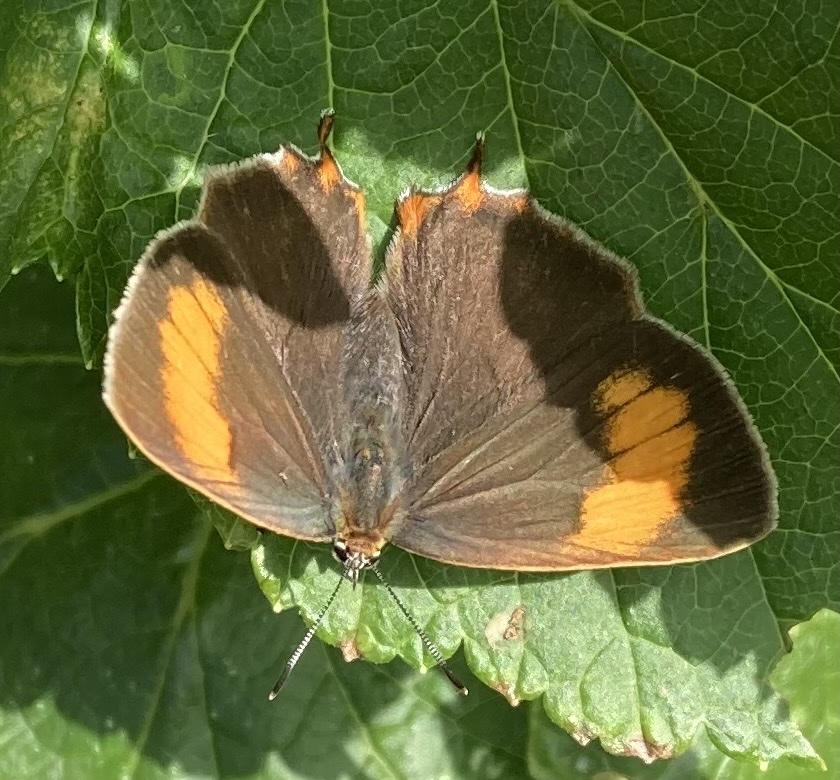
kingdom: Animalia
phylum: Arthropoda
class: Insecta
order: Lepidoptera
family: Lycaenidae
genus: Thecla
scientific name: Thecla betulae
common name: Brown hairstreak
